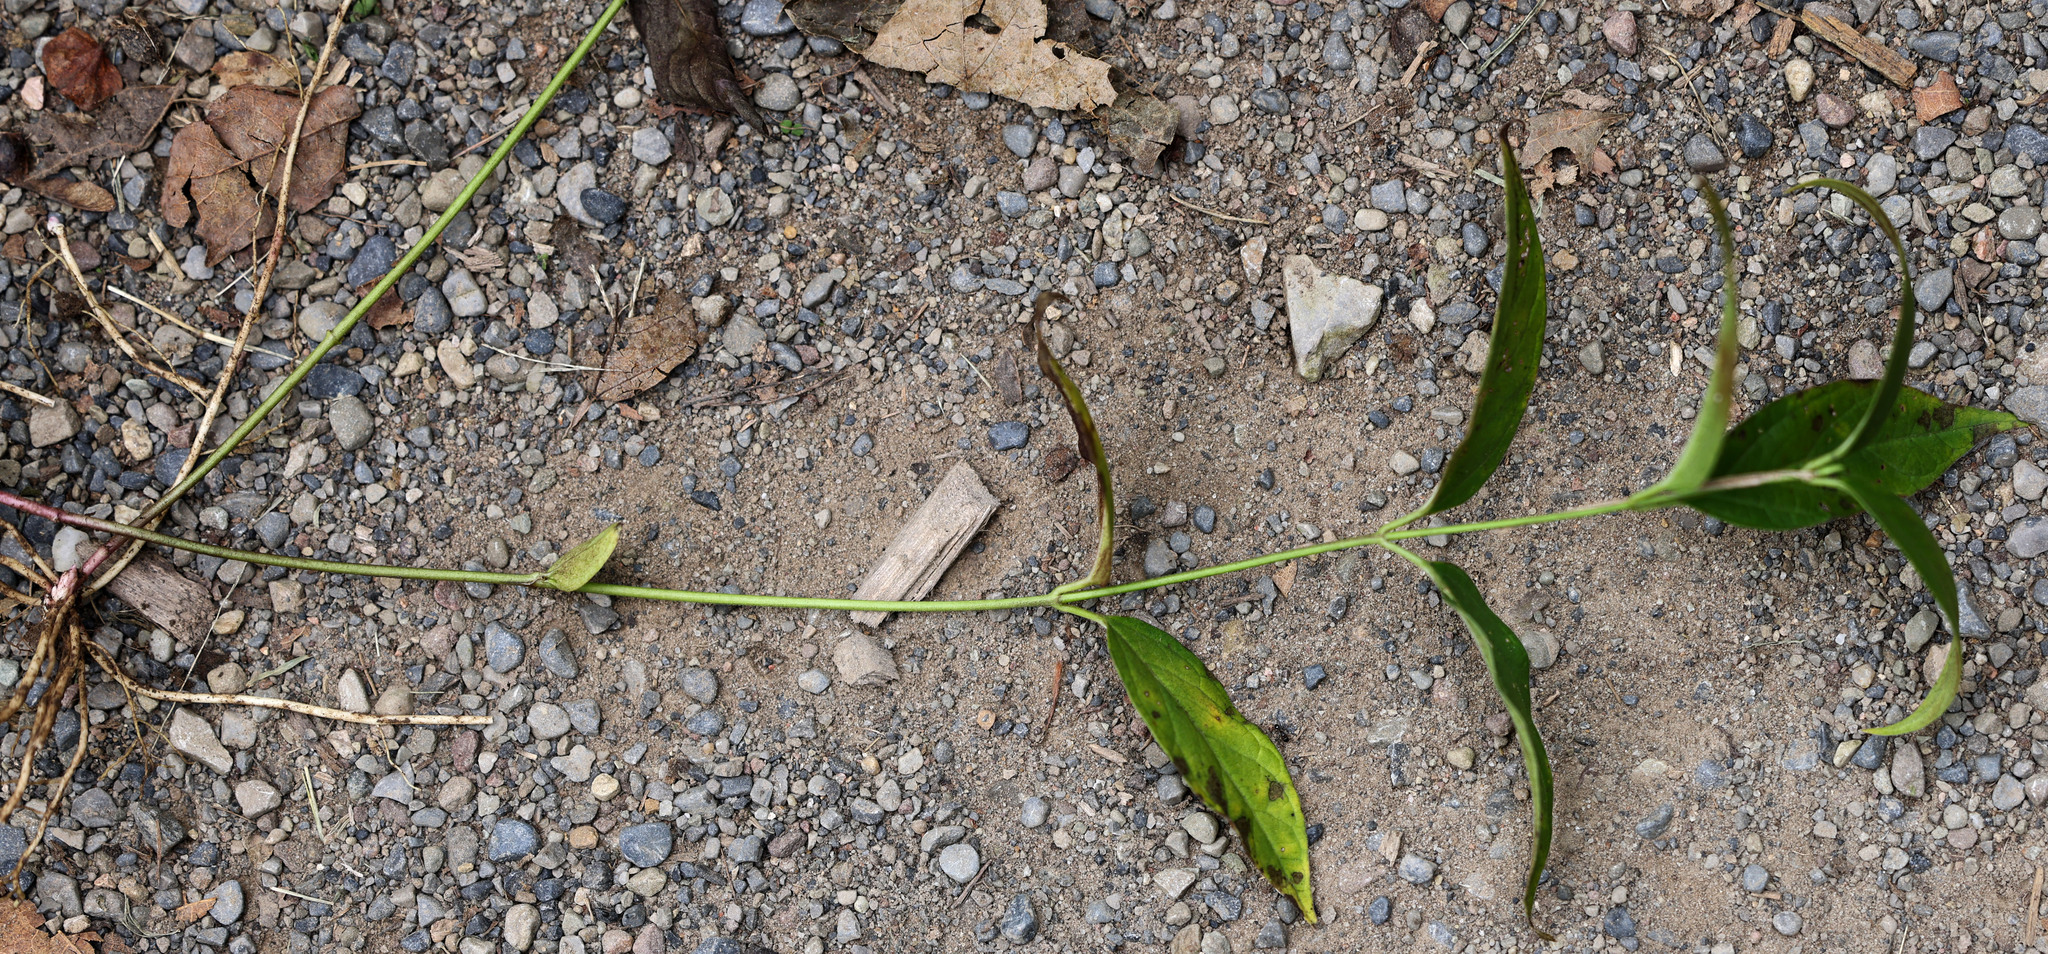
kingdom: Plantae
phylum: Tracheophyta
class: Magnoliopsida
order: Gentianales
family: Apocynaceae
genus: Vincetoxicum
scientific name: Vincetoxicum rossicum
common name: Dog-strangling vine
